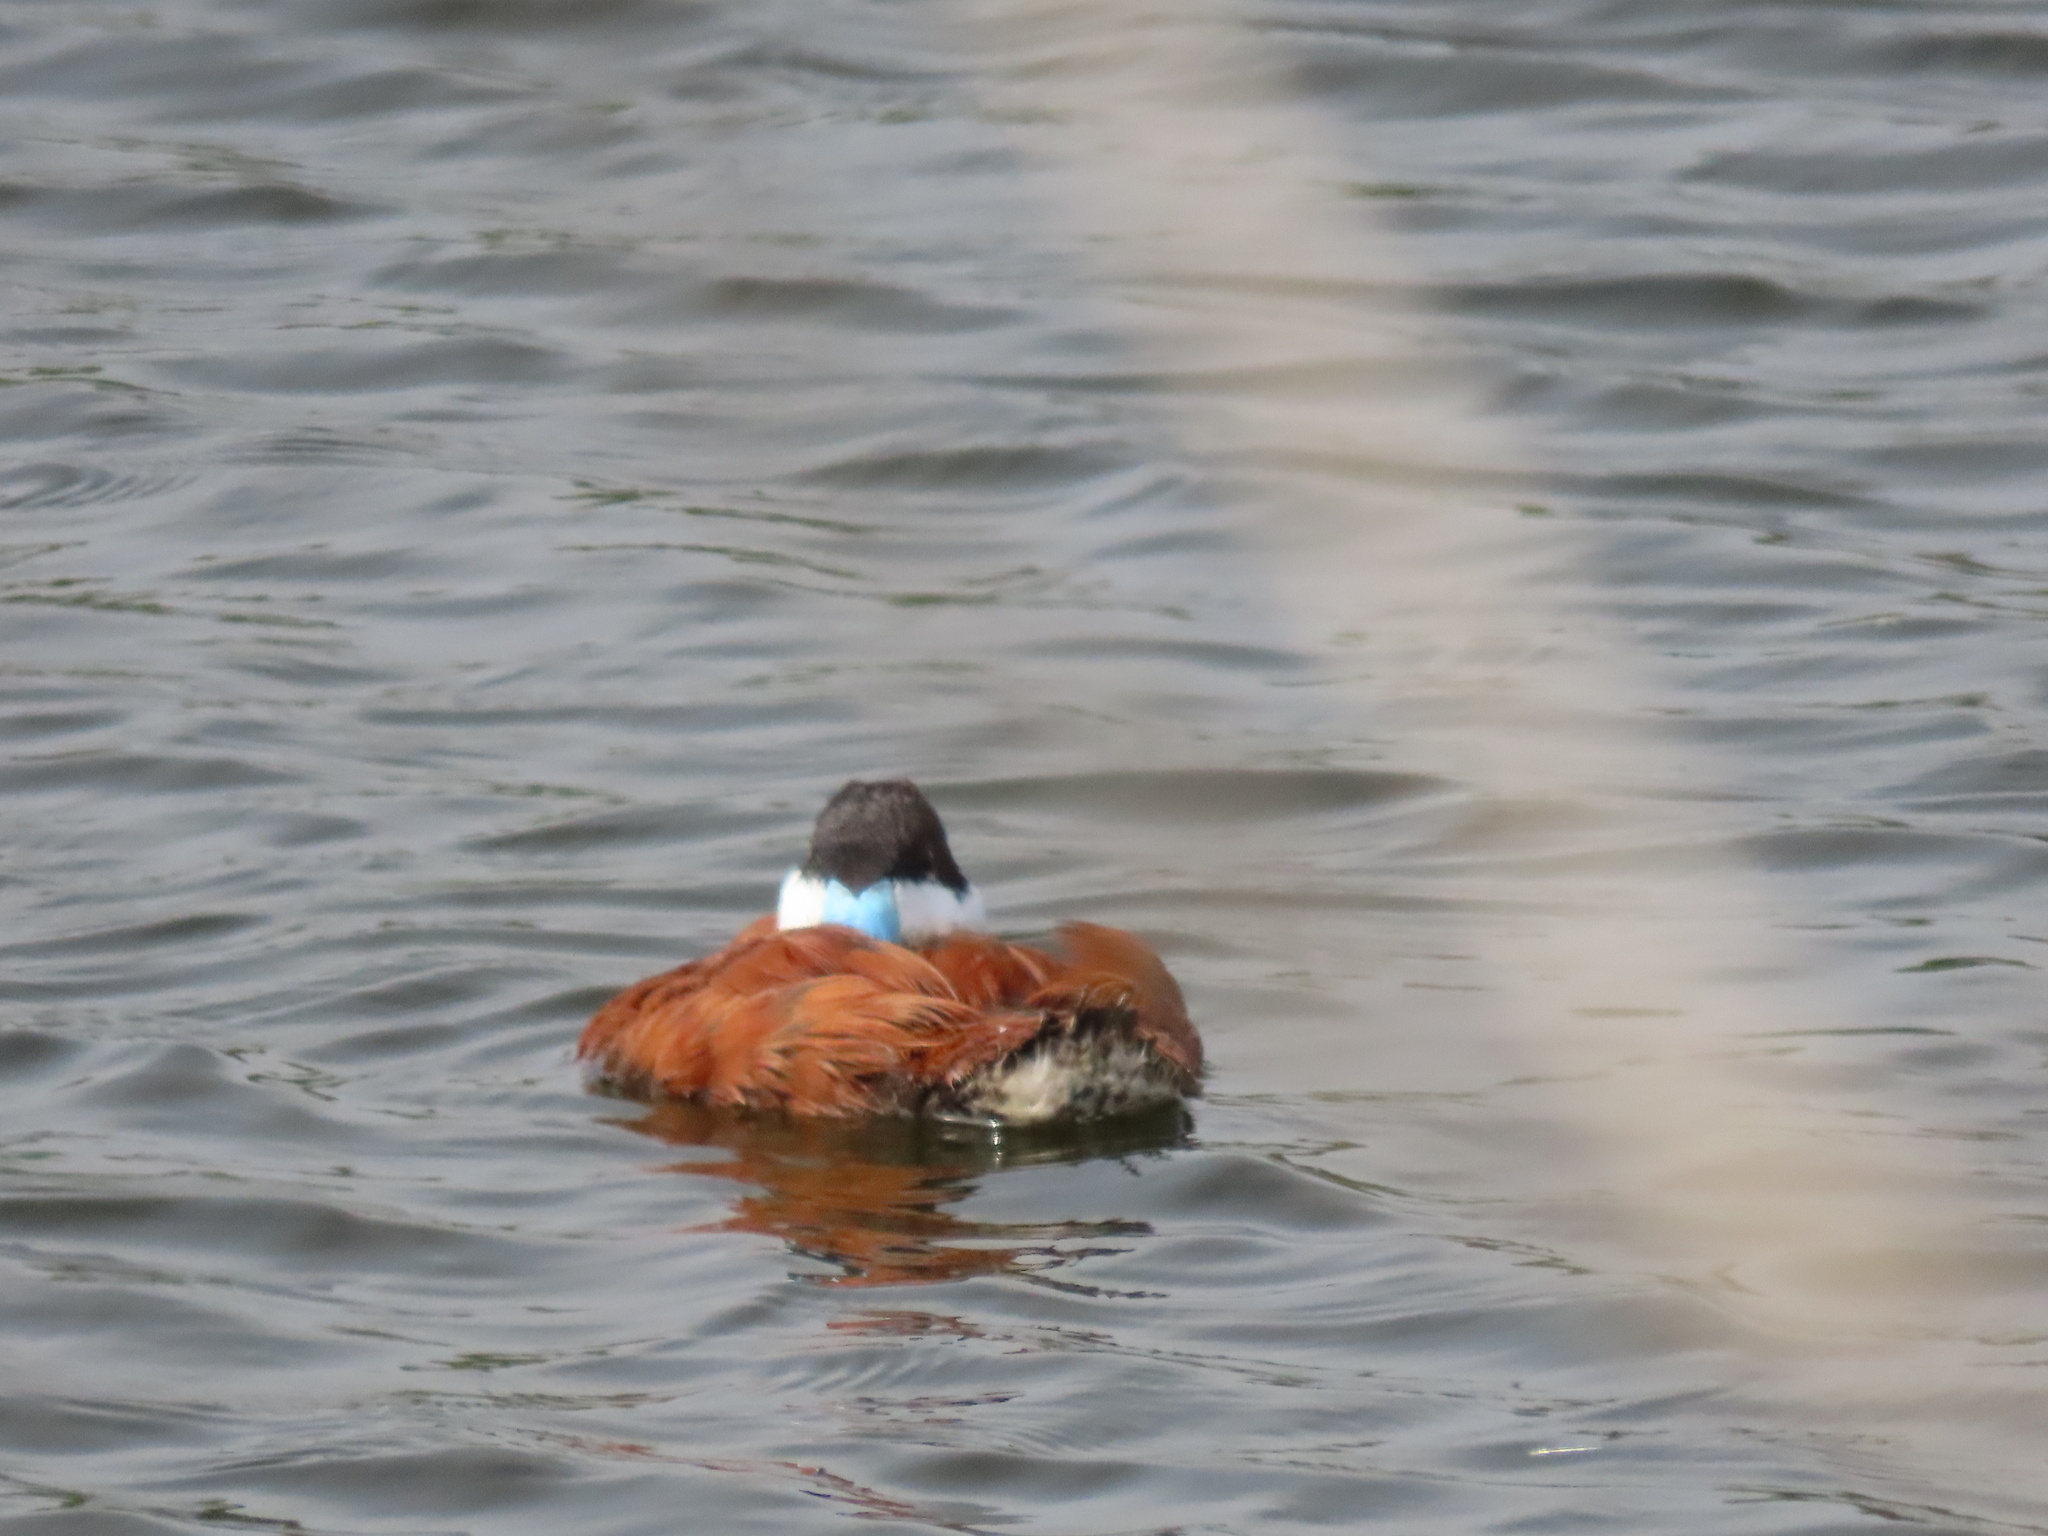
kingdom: Animalia
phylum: Chordata
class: Aves
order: Anseriformes
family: Anatidae
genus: Oxyura
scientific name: Oxyura jamaicensis
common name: Ruddy duck
